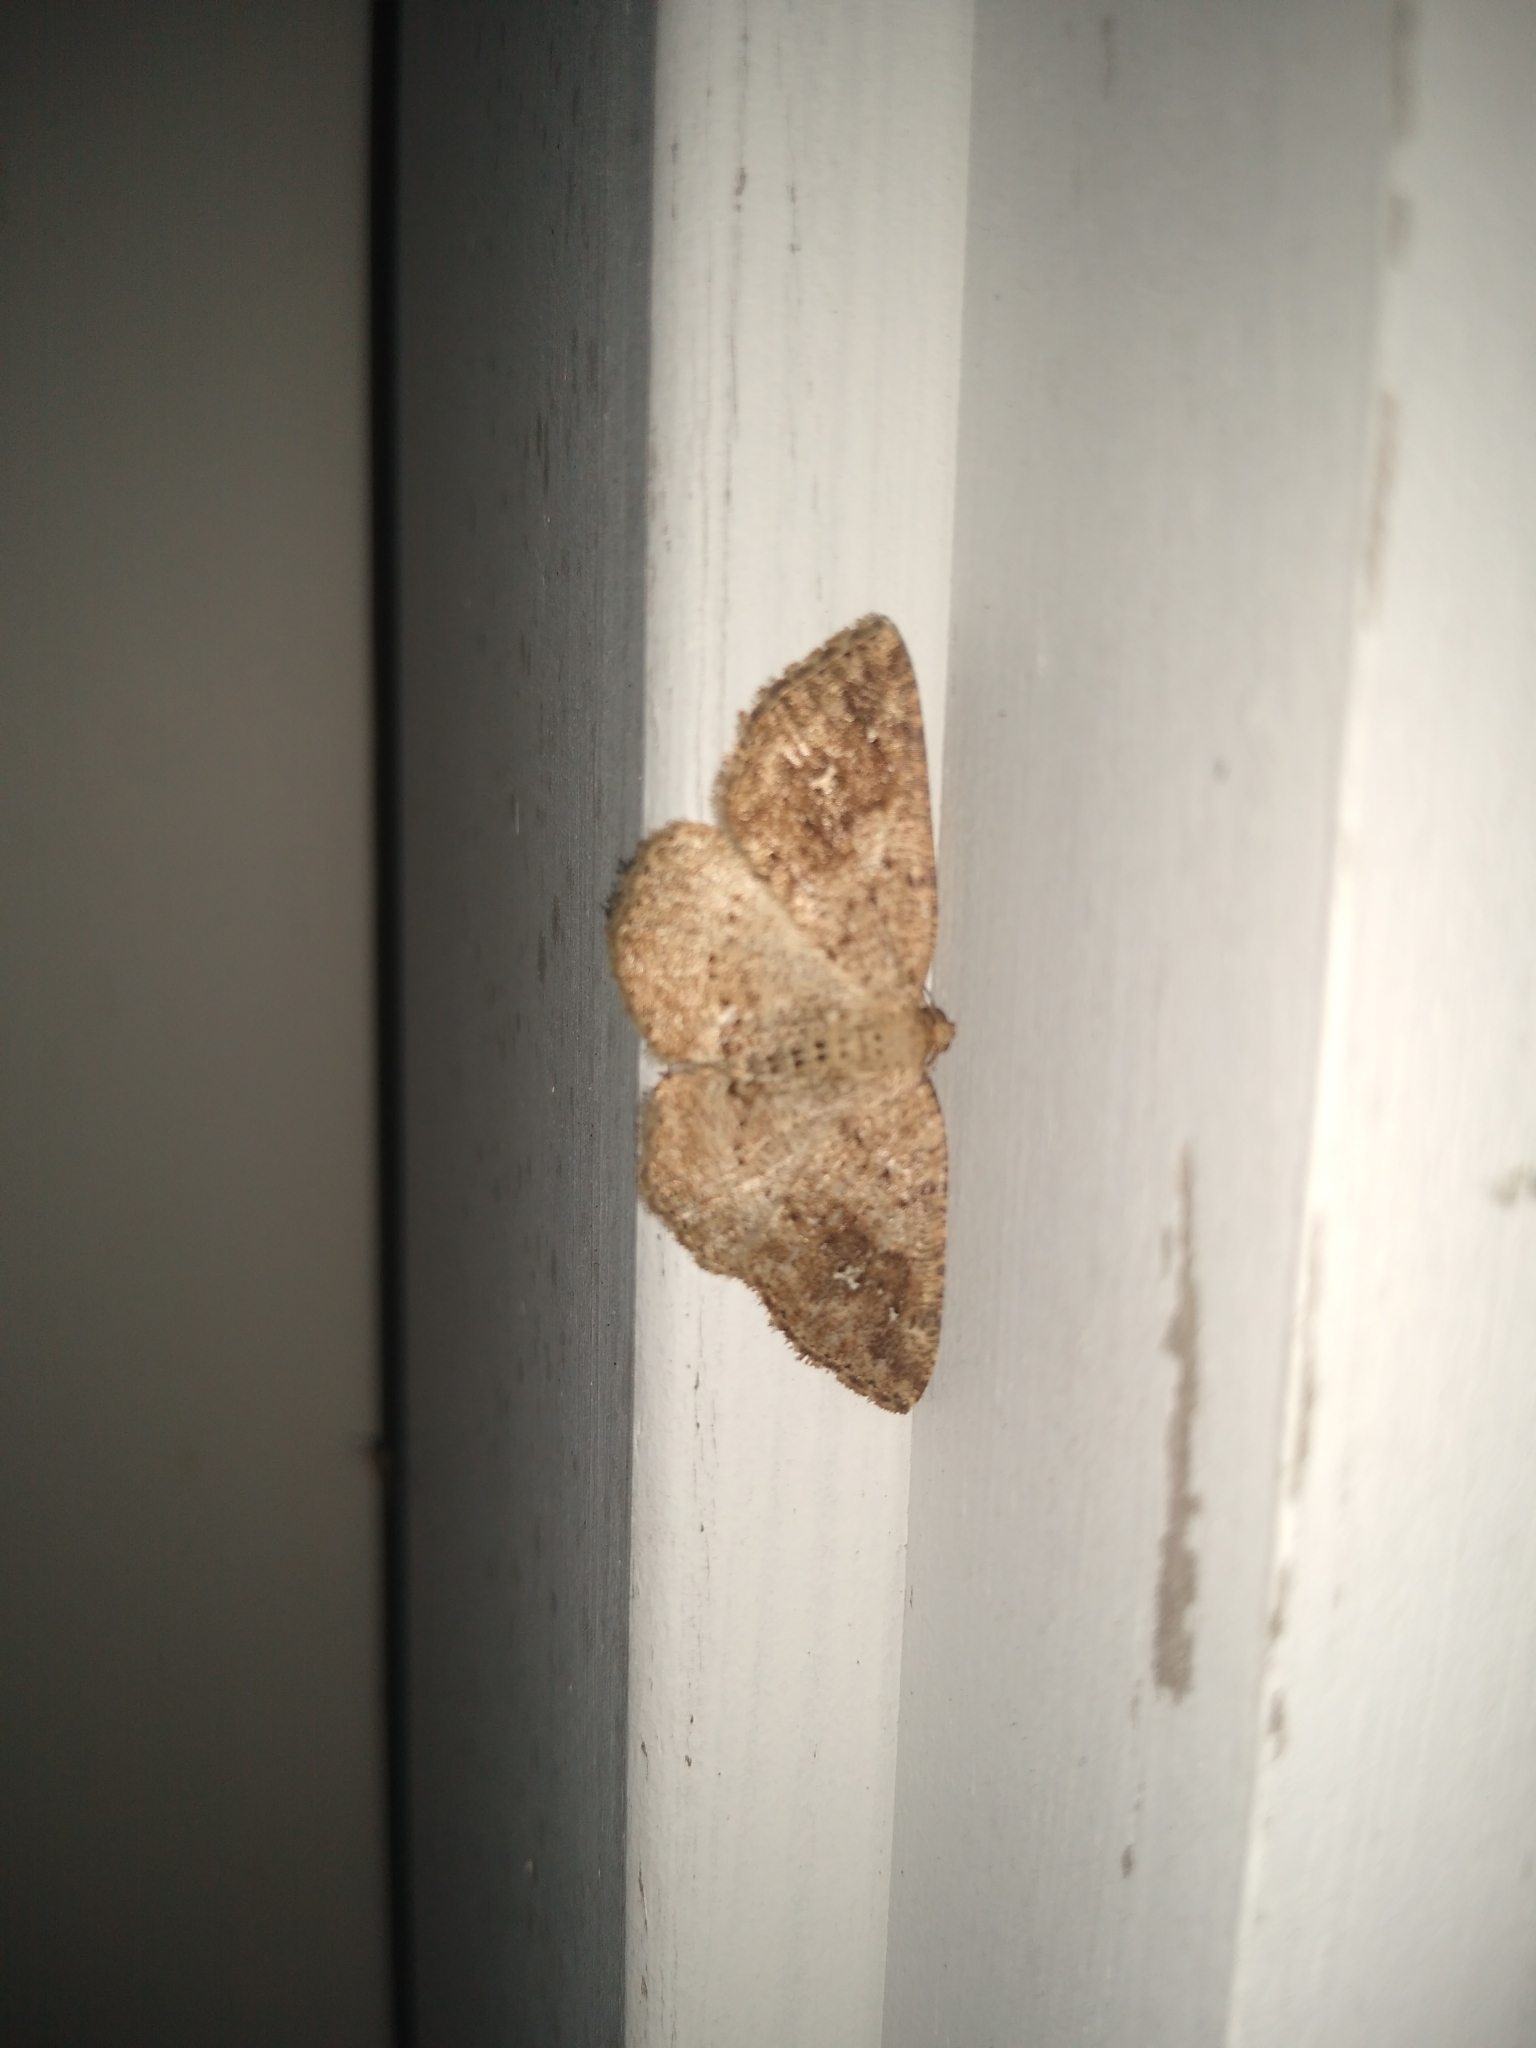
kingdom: Animalia
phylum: Arthropoda
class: Insecta
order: Lepidoptera
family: Geometridae
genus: Homochlodes
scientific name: Homochlodes fritillaria
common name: Pale homochlodes
